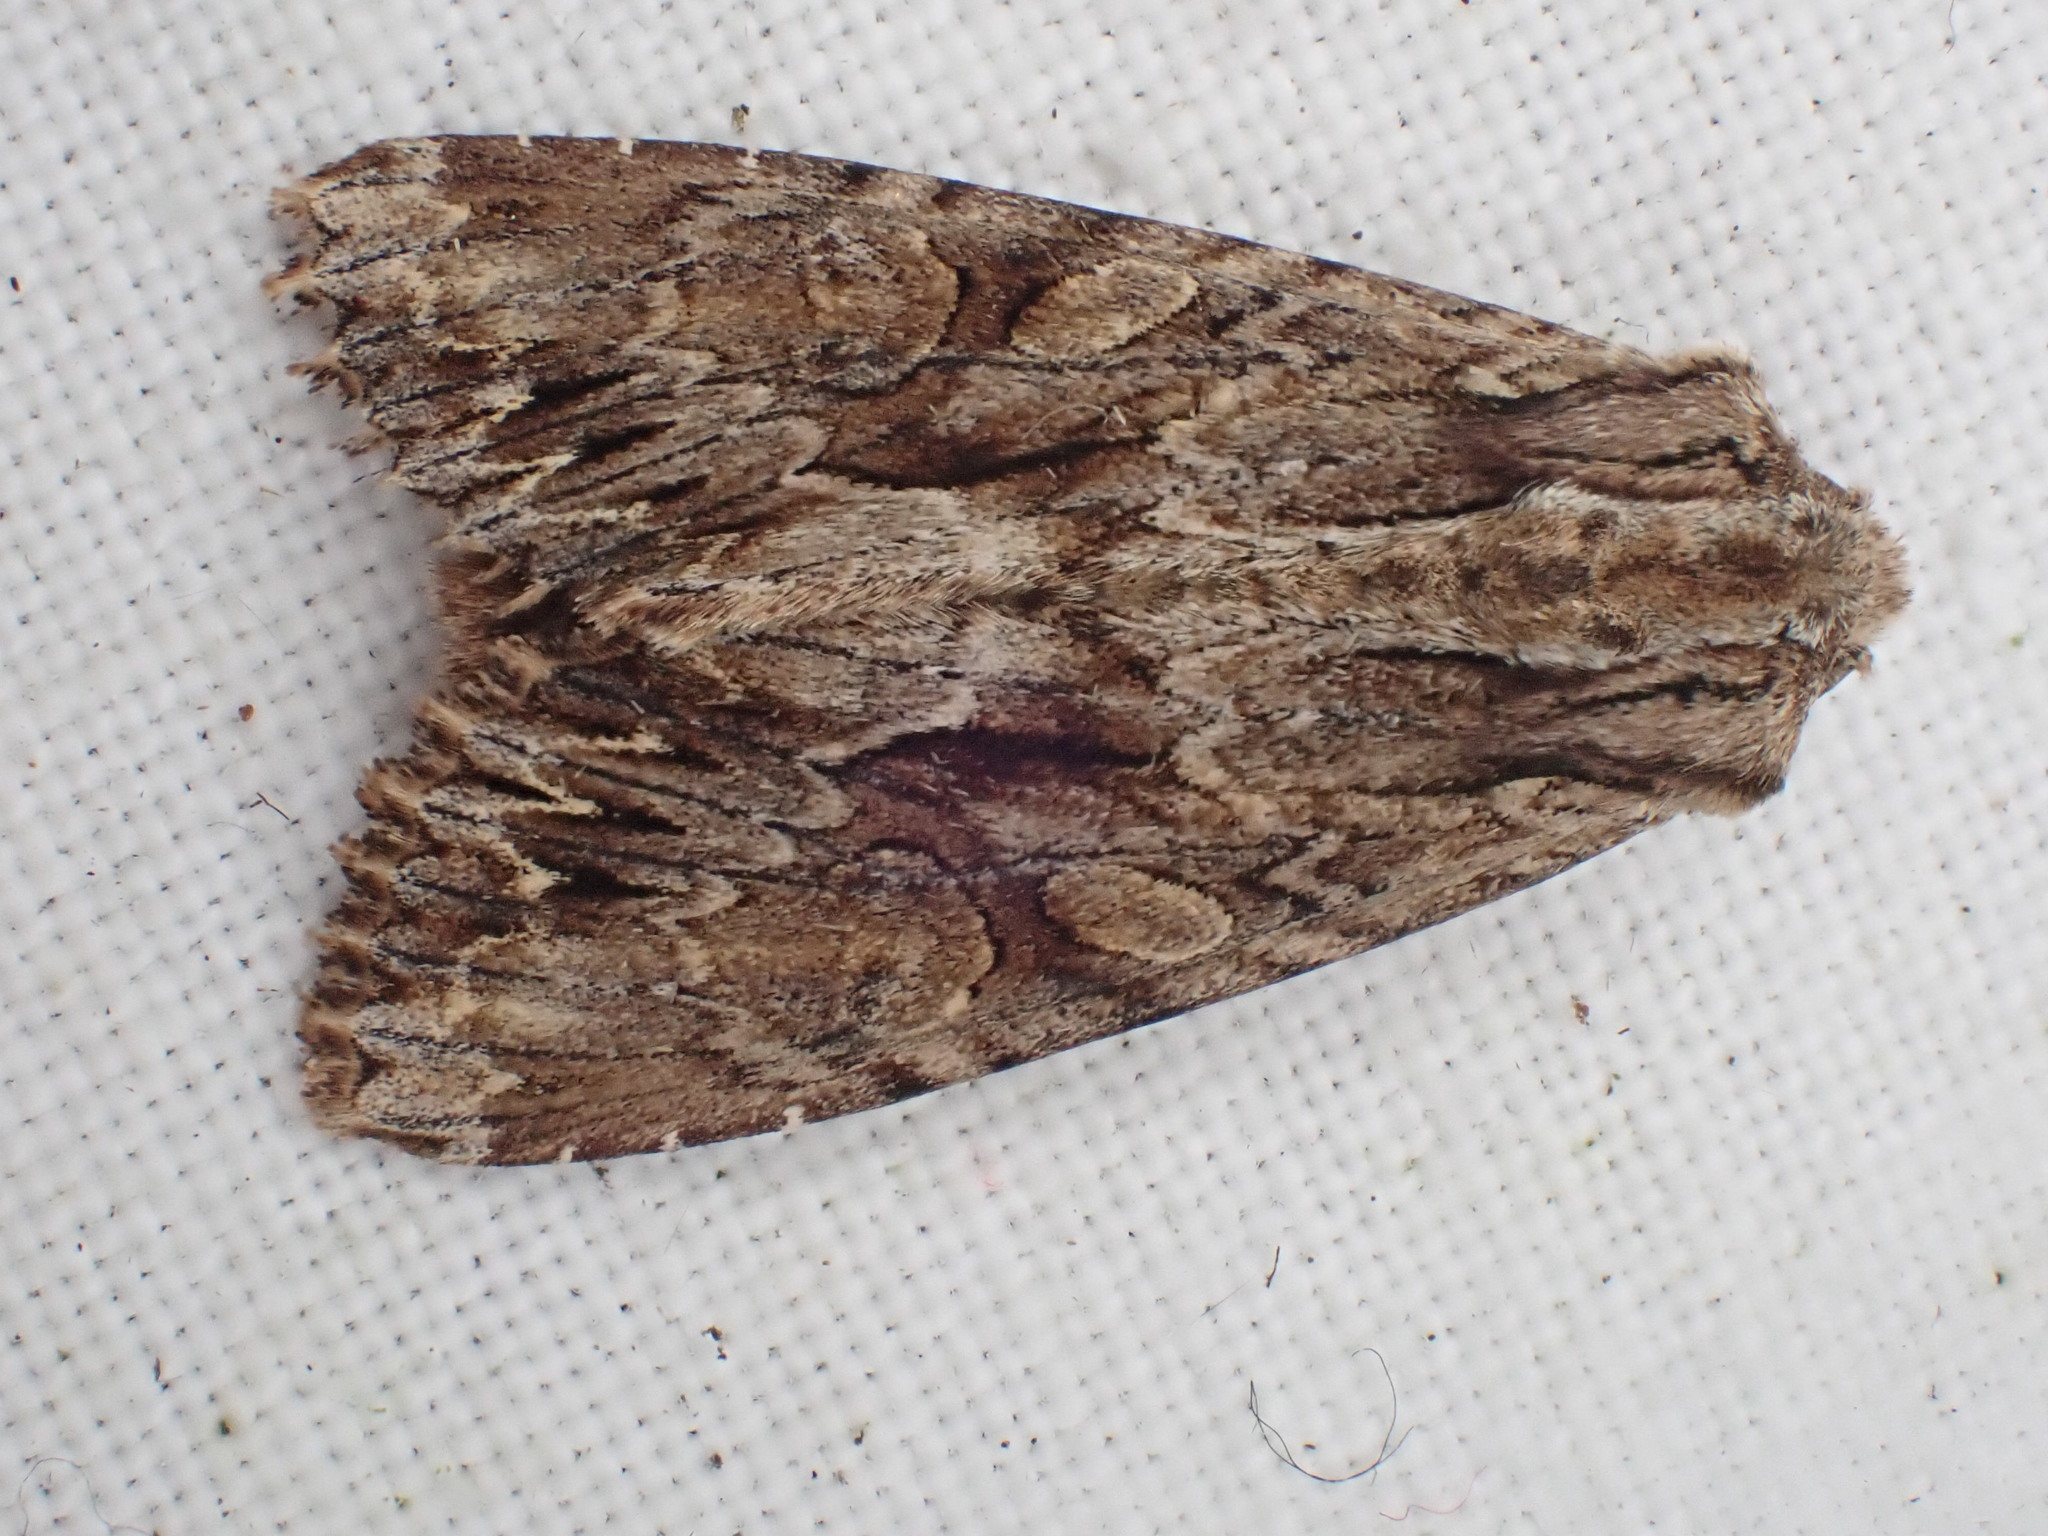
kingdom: Animalia
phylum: Arthropoda
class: Insecta
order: Lepidoptera
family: Noctuidae
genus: Apamea
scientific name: Apamea monoglypha
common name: Dark arches
